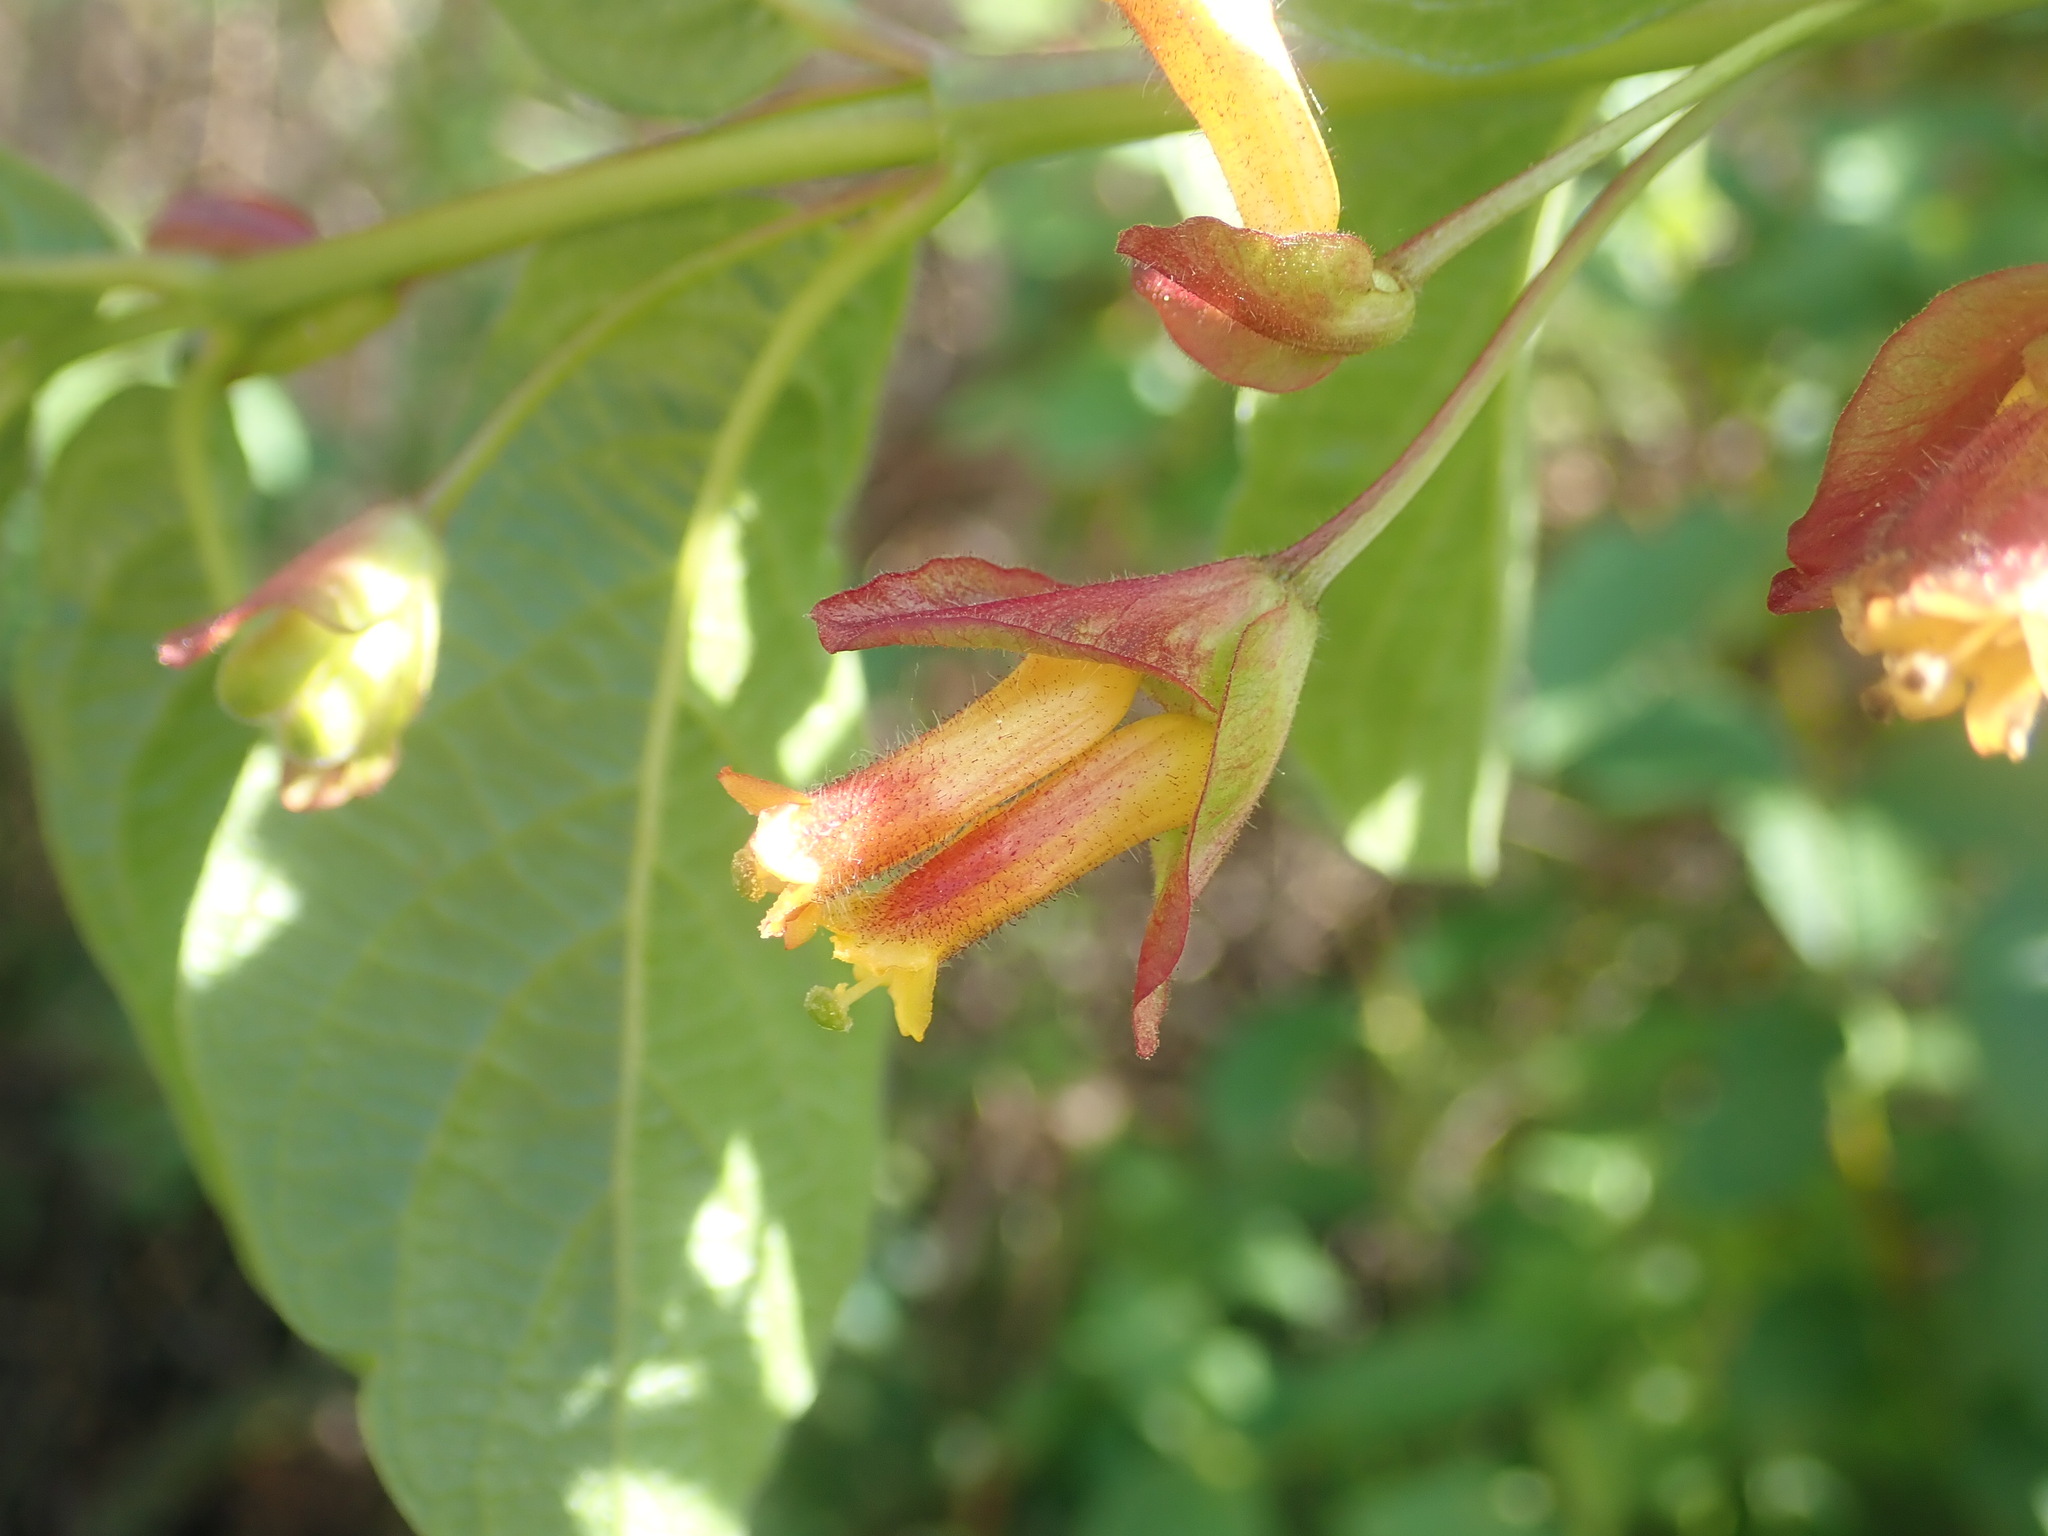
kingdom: Plantae
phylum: Tracheophyta
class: Magnoliopsida
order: Dipsacales
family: Caprifoliaceae
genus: Lonicera
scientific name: Lonicera involucrata
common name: Californian honeysuckle
